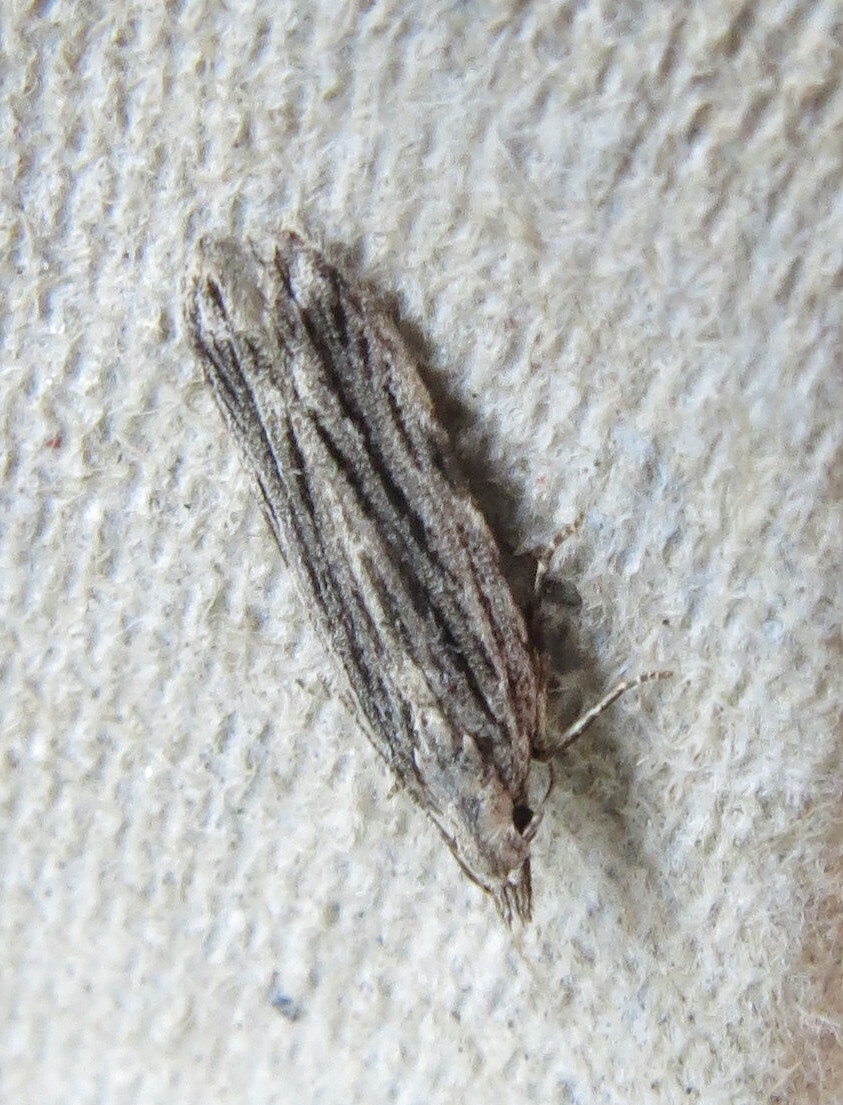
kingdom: Animalia
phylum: Arthropoda
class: Insecta
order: Lepidoptera
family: Gelechiidae
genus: Anarsia
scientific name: Anarsia innoxiella
